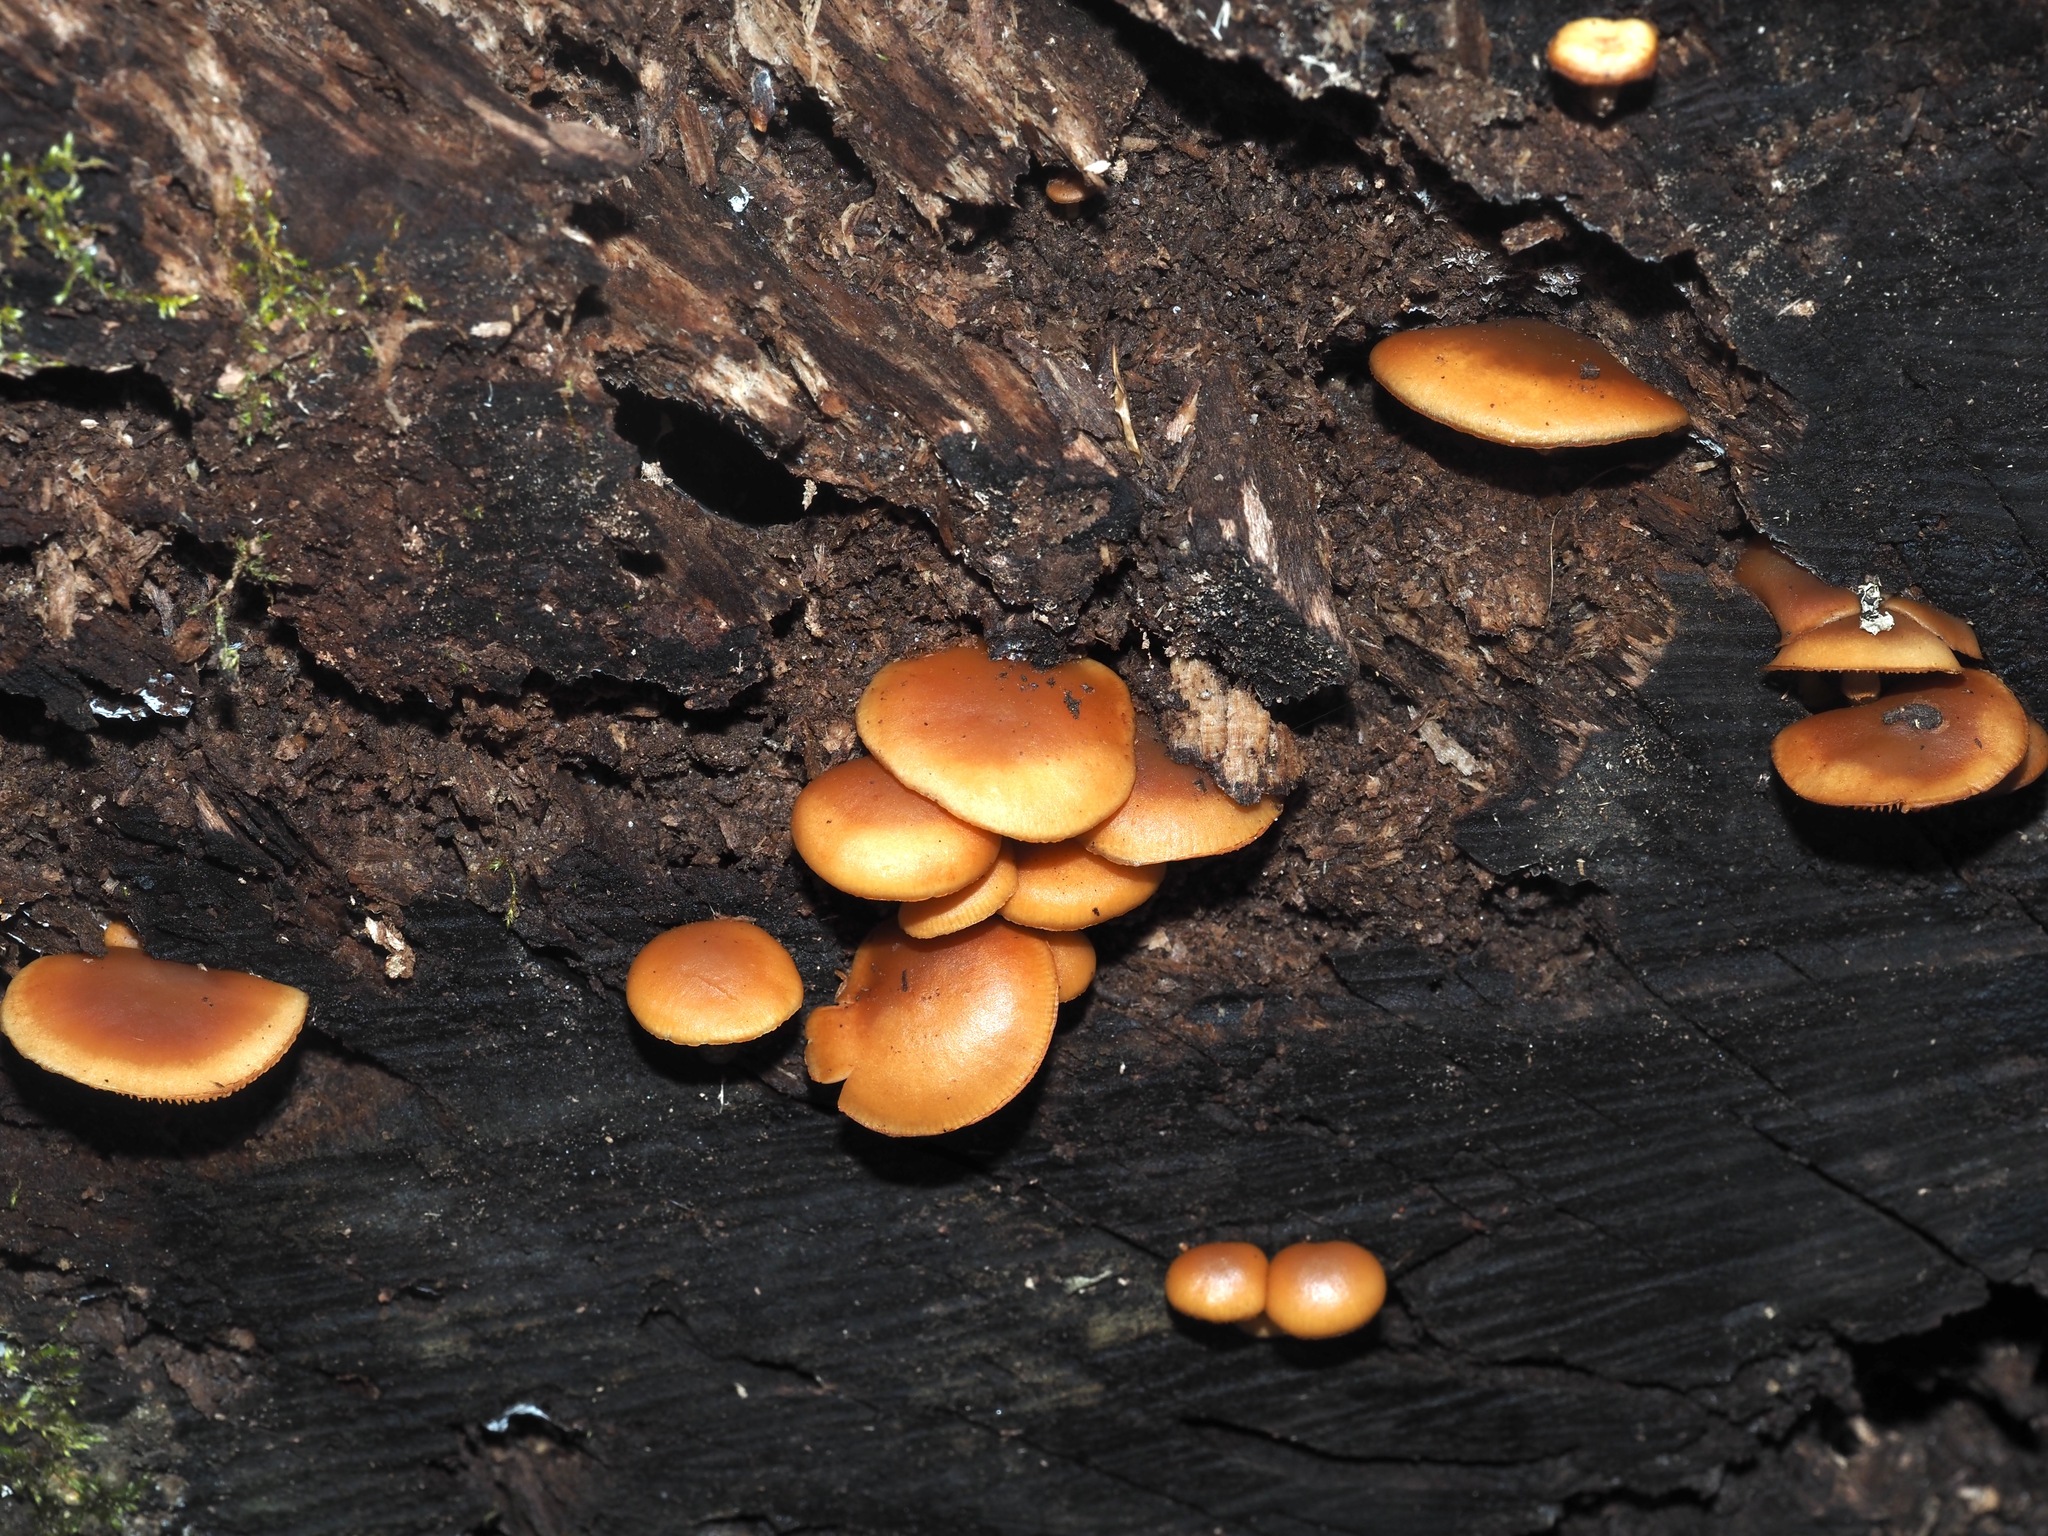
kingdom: Fungi
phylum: Basidiomycota
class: Agaricomycetes
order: Agaricales
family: Hymenogastraceae
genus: Galerina
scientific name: Galerina marginata
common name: Funeral bell
